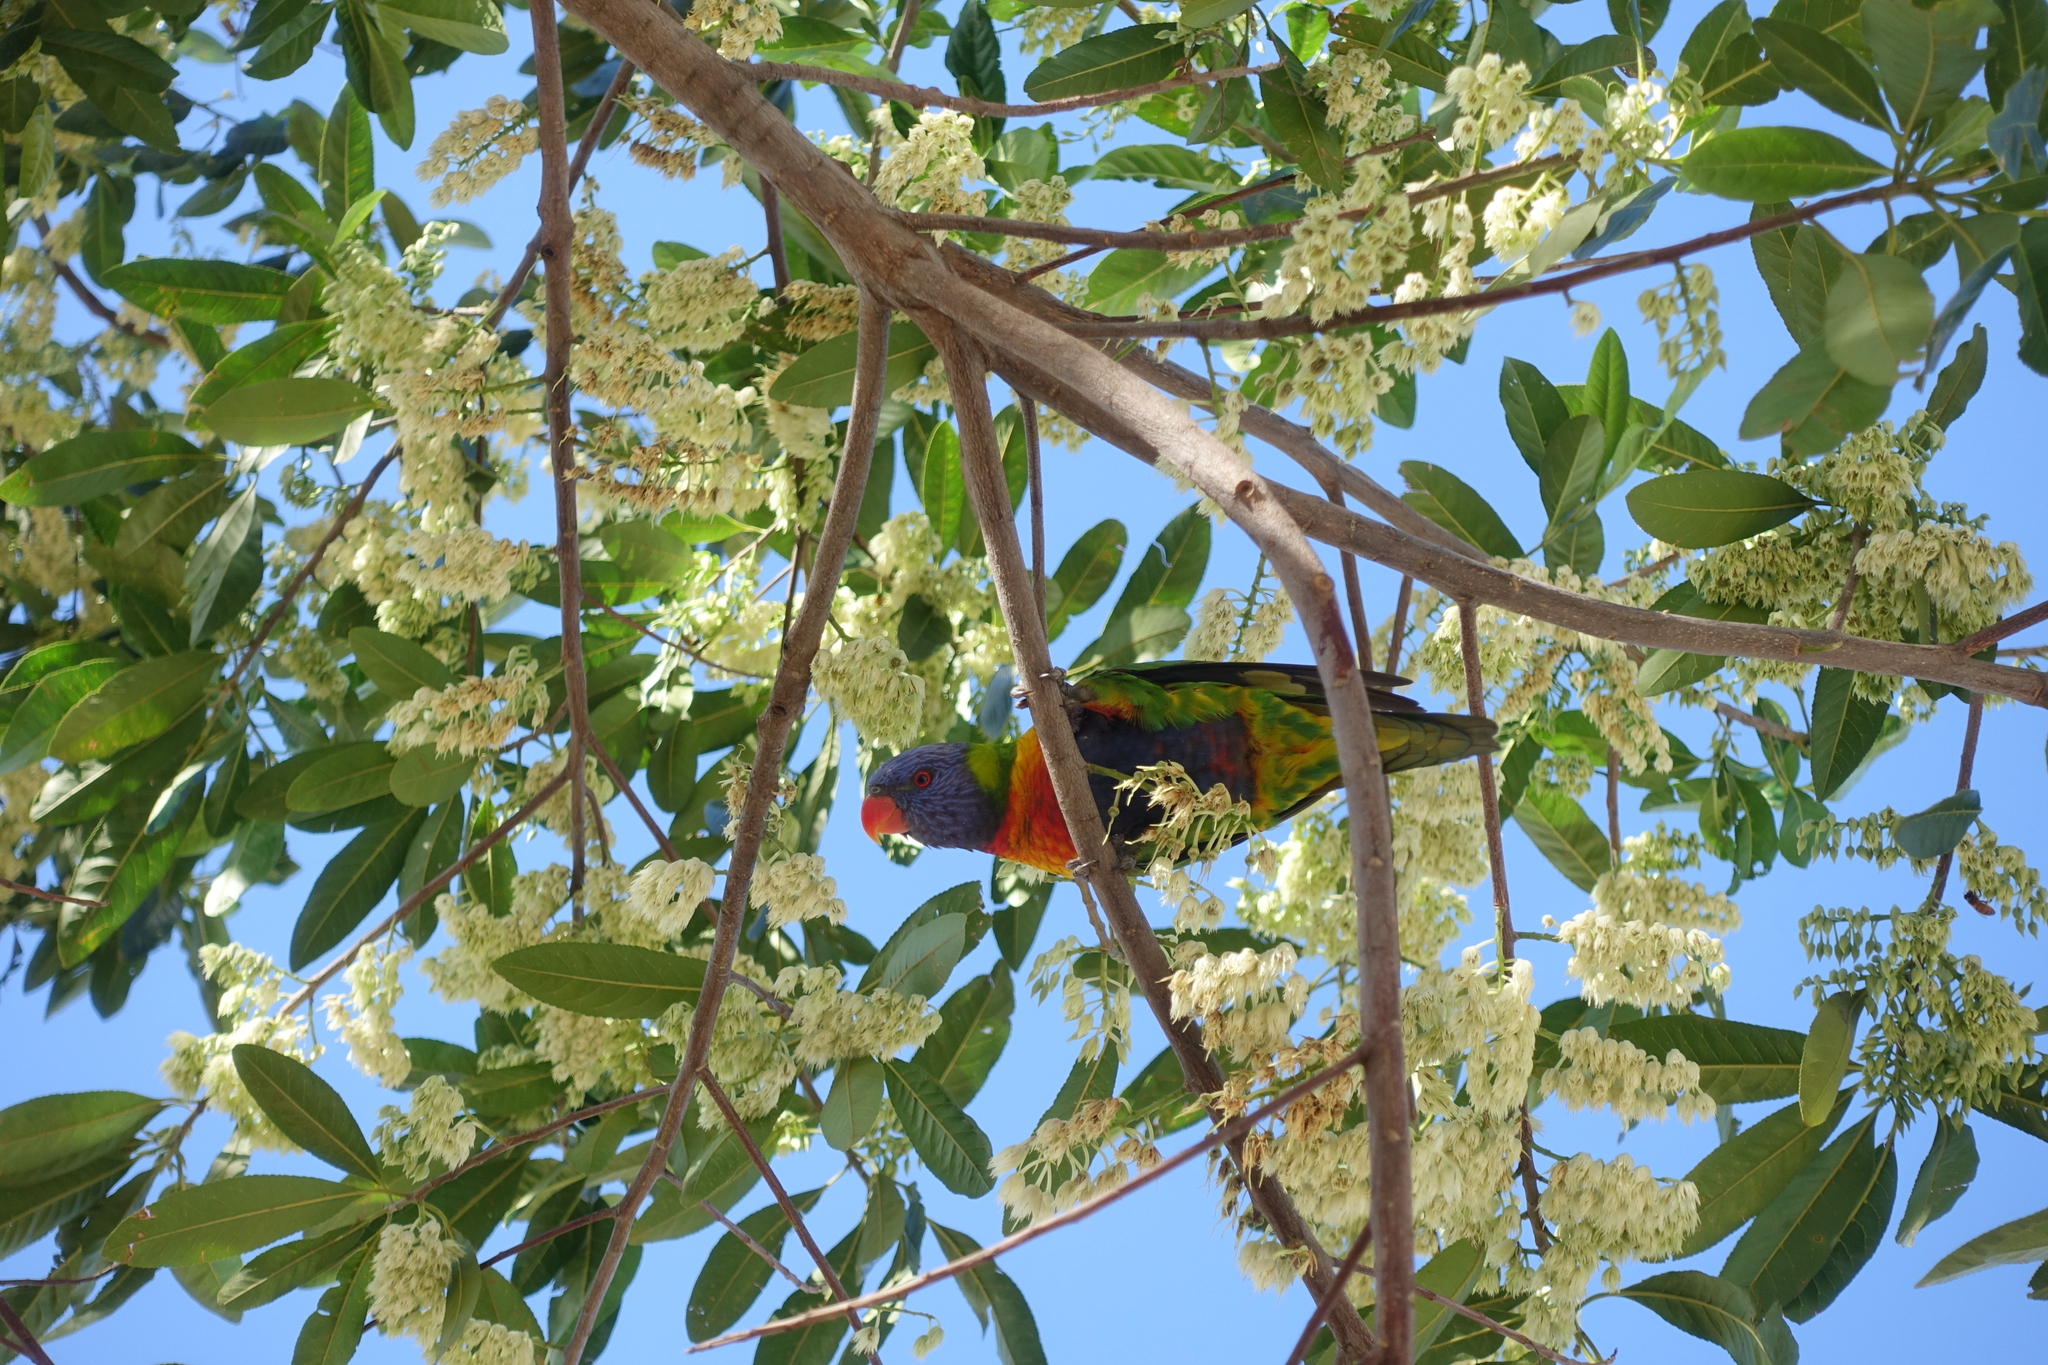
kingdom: Animalia
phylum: Chordata
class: Aves
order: Psittaciformes
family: Psittacidae
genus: Trichoglossus
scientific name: Trichoglossus haematodus
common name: Coconut lorikeet
